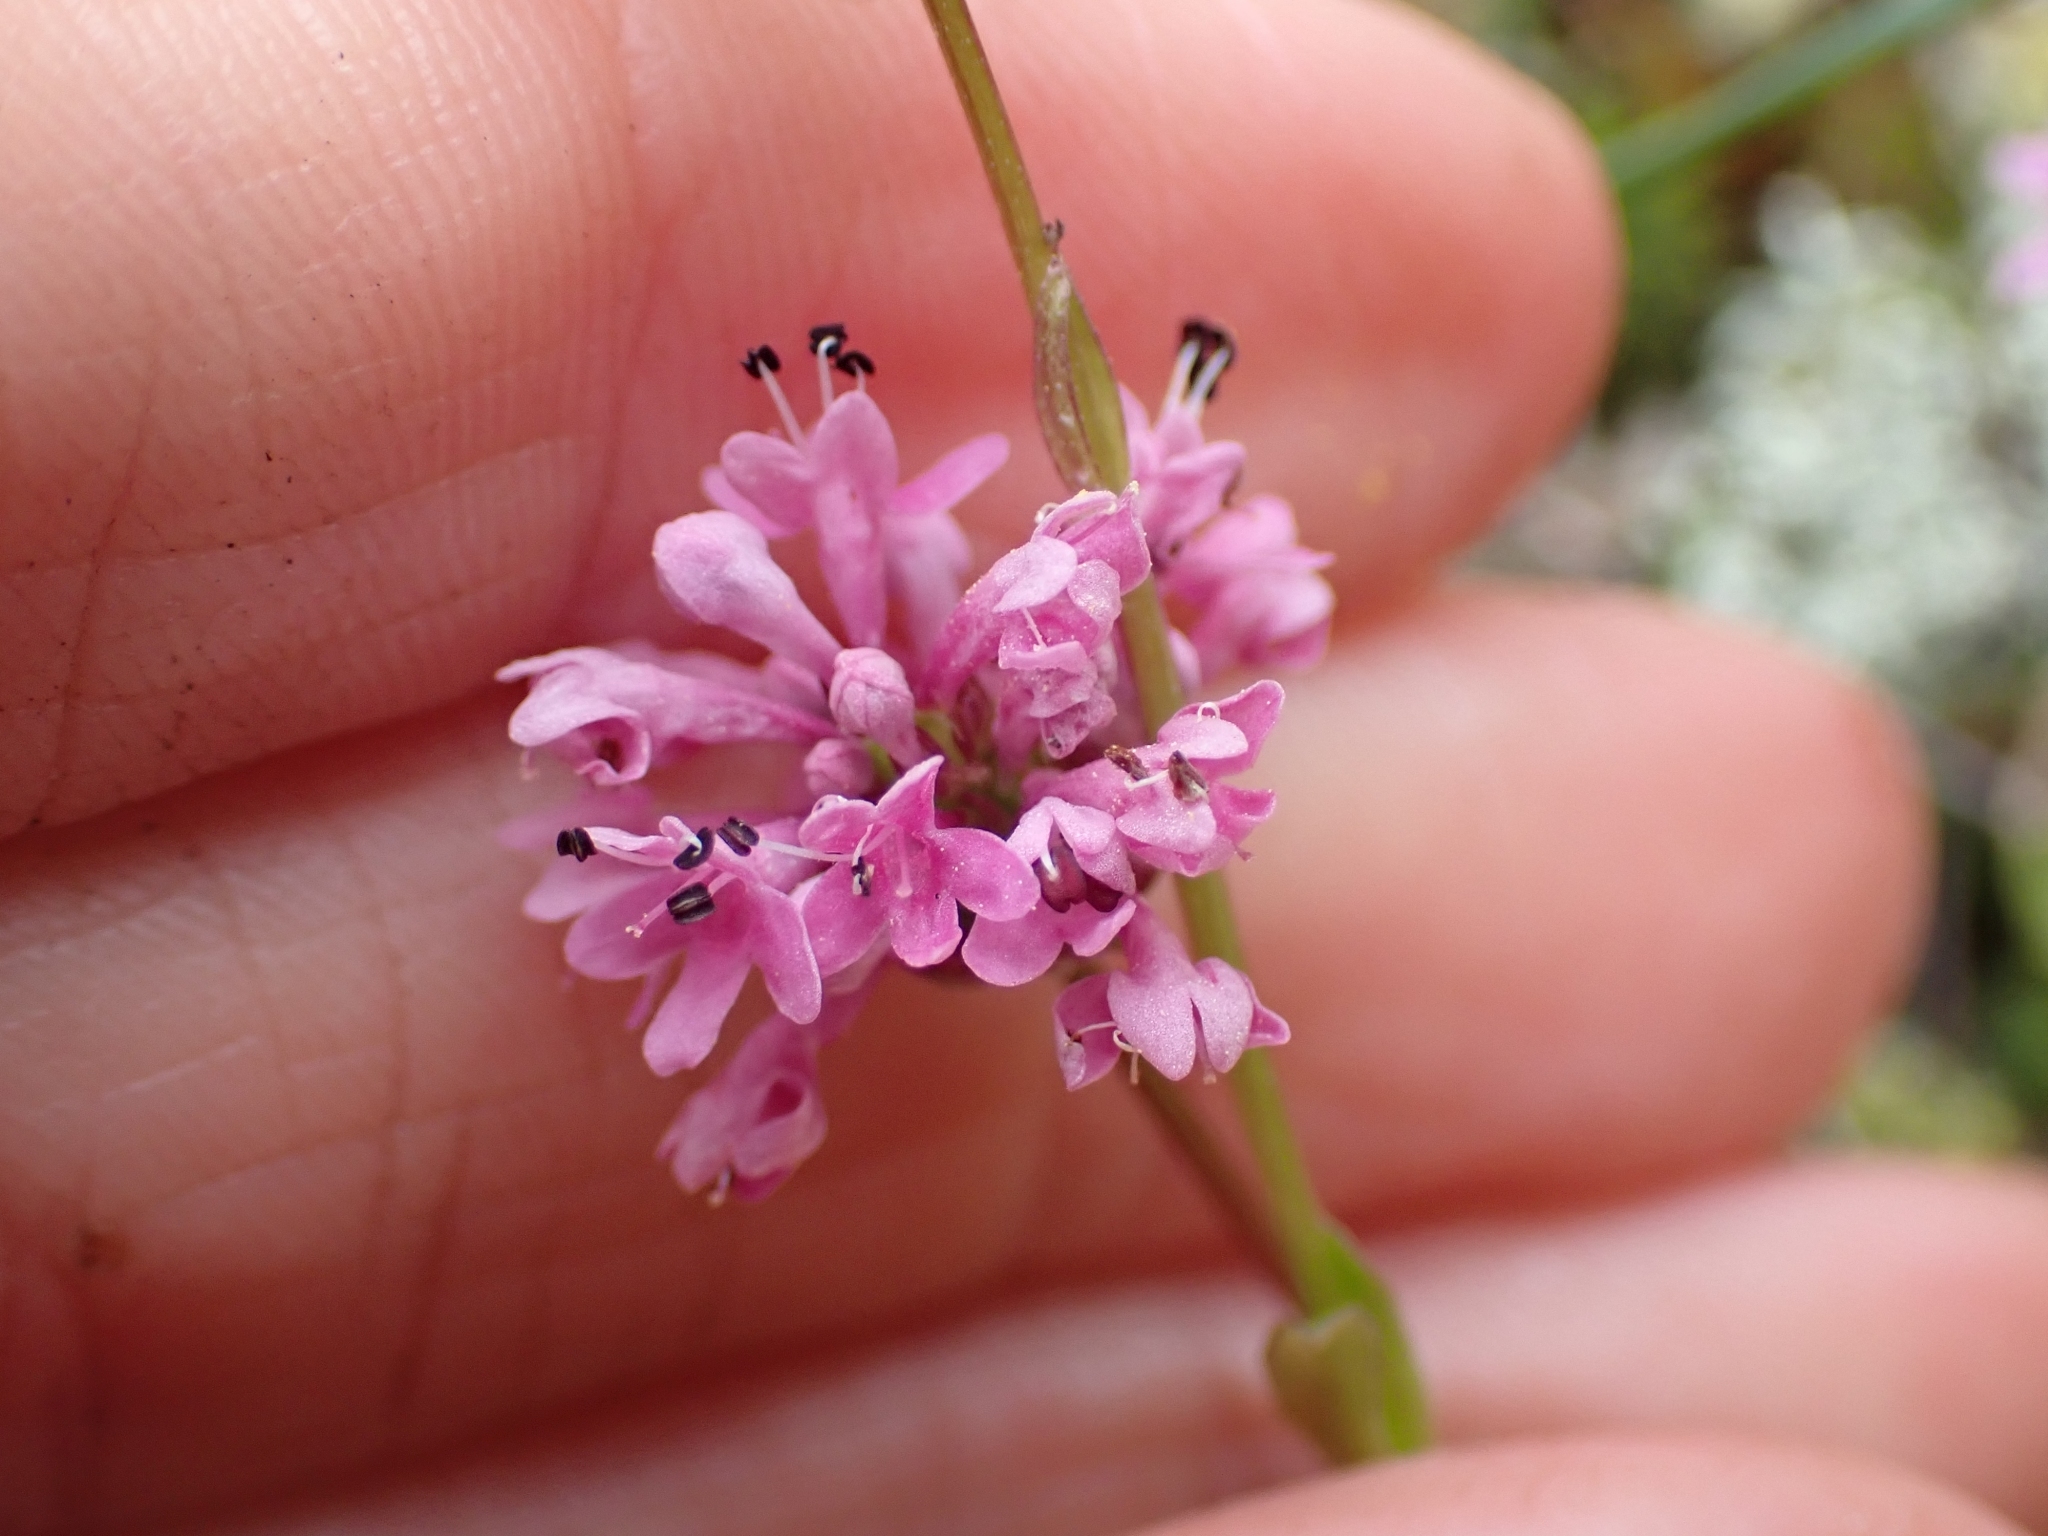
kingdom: Plantae
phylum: Tracheophyta
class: Magnoliopsida
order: Dipsacales
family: Caprifoliaceae
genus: Plectritis
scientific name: Plectritis congesta
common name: Pink plectritis
